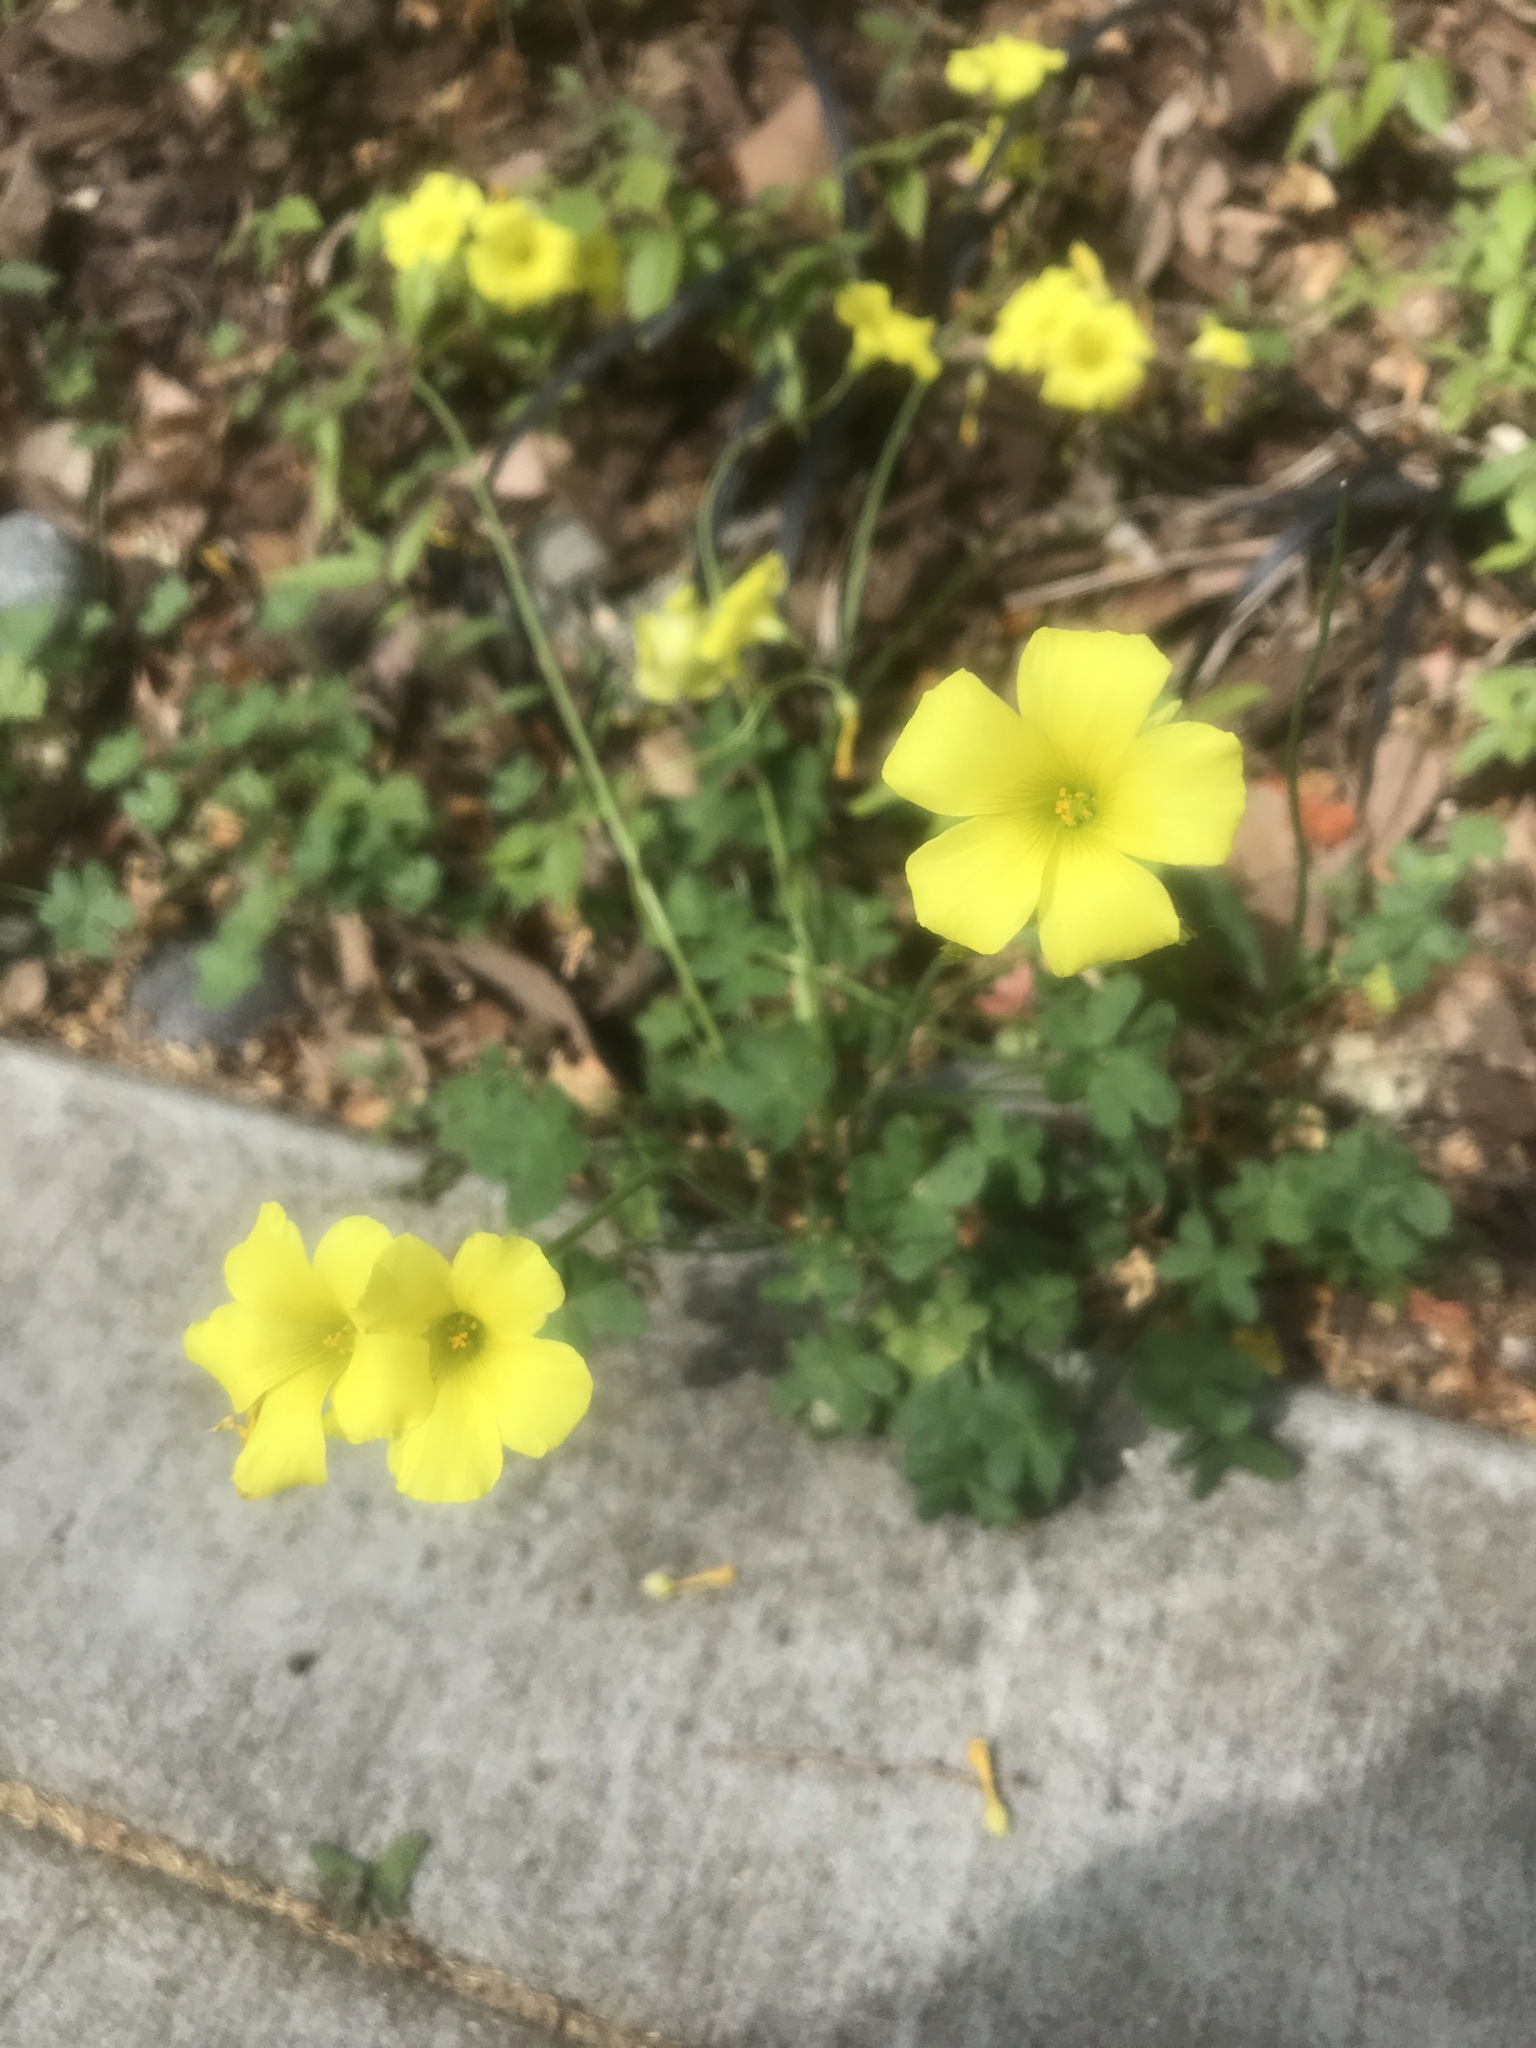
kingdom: Plantae
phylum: Tracheophyta
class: Magnoliopsida
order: Oxalidales
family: Oxalidaceae
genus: Oxalis
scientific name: Oxalis pes-caprae
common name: Bermuda-buttercup
